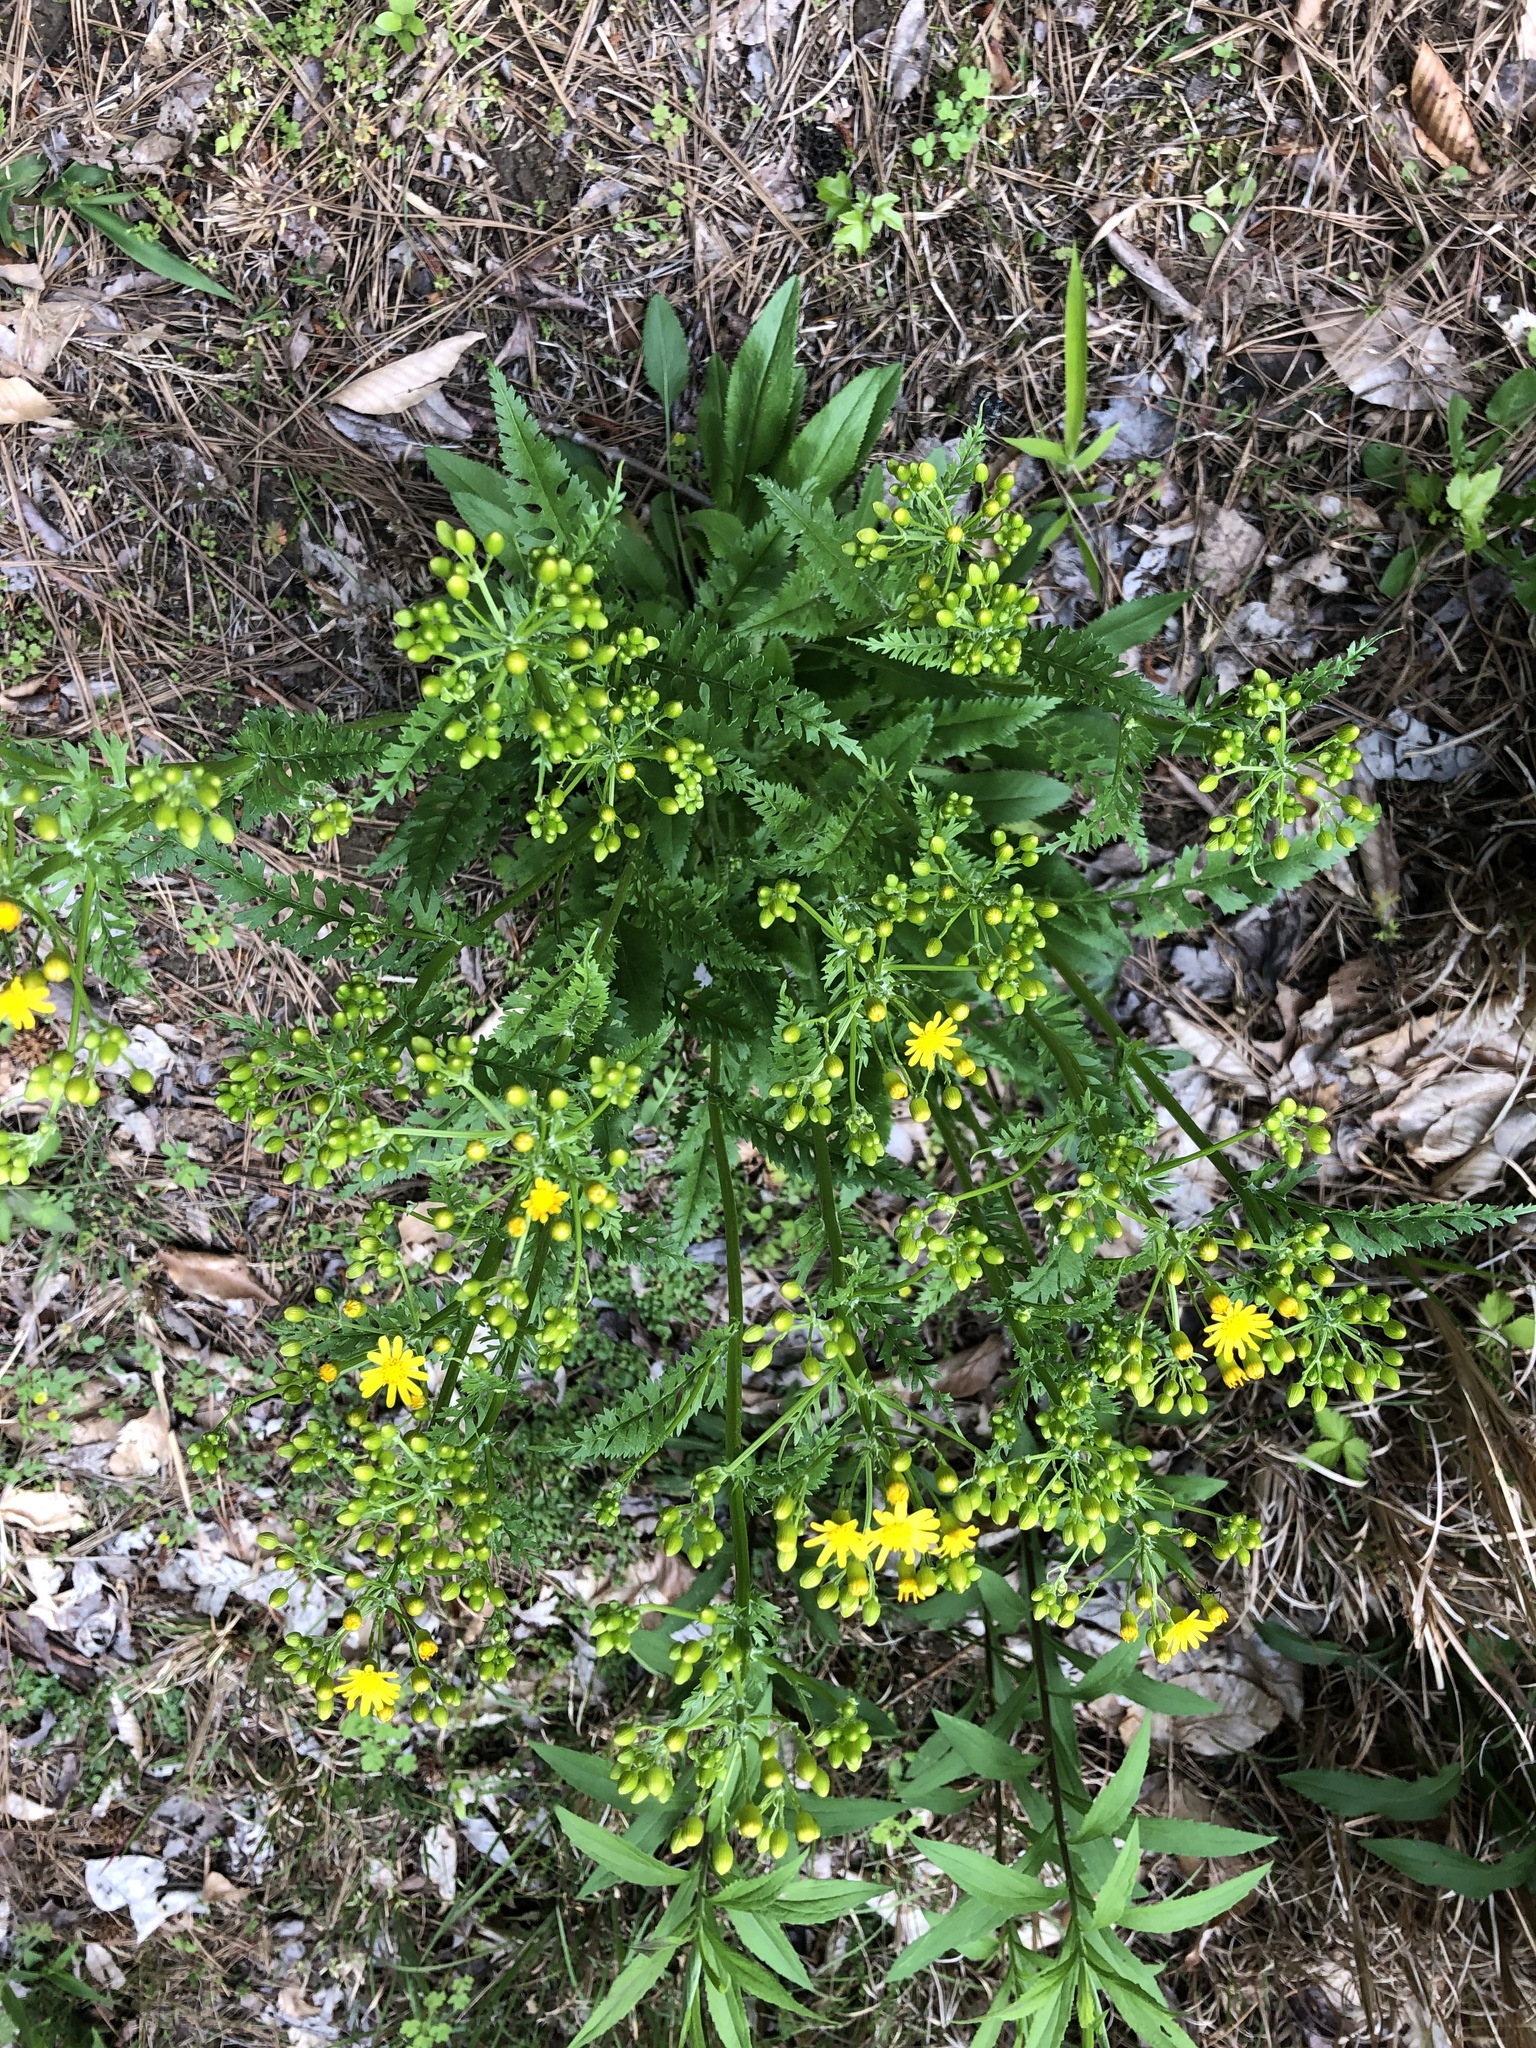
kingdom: Plantae
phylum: Tracheophyta
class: Magnoliopsida
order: Asterales
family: Asteraceae
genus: Packera
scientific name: Packera anonyma
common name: Small ragwort
